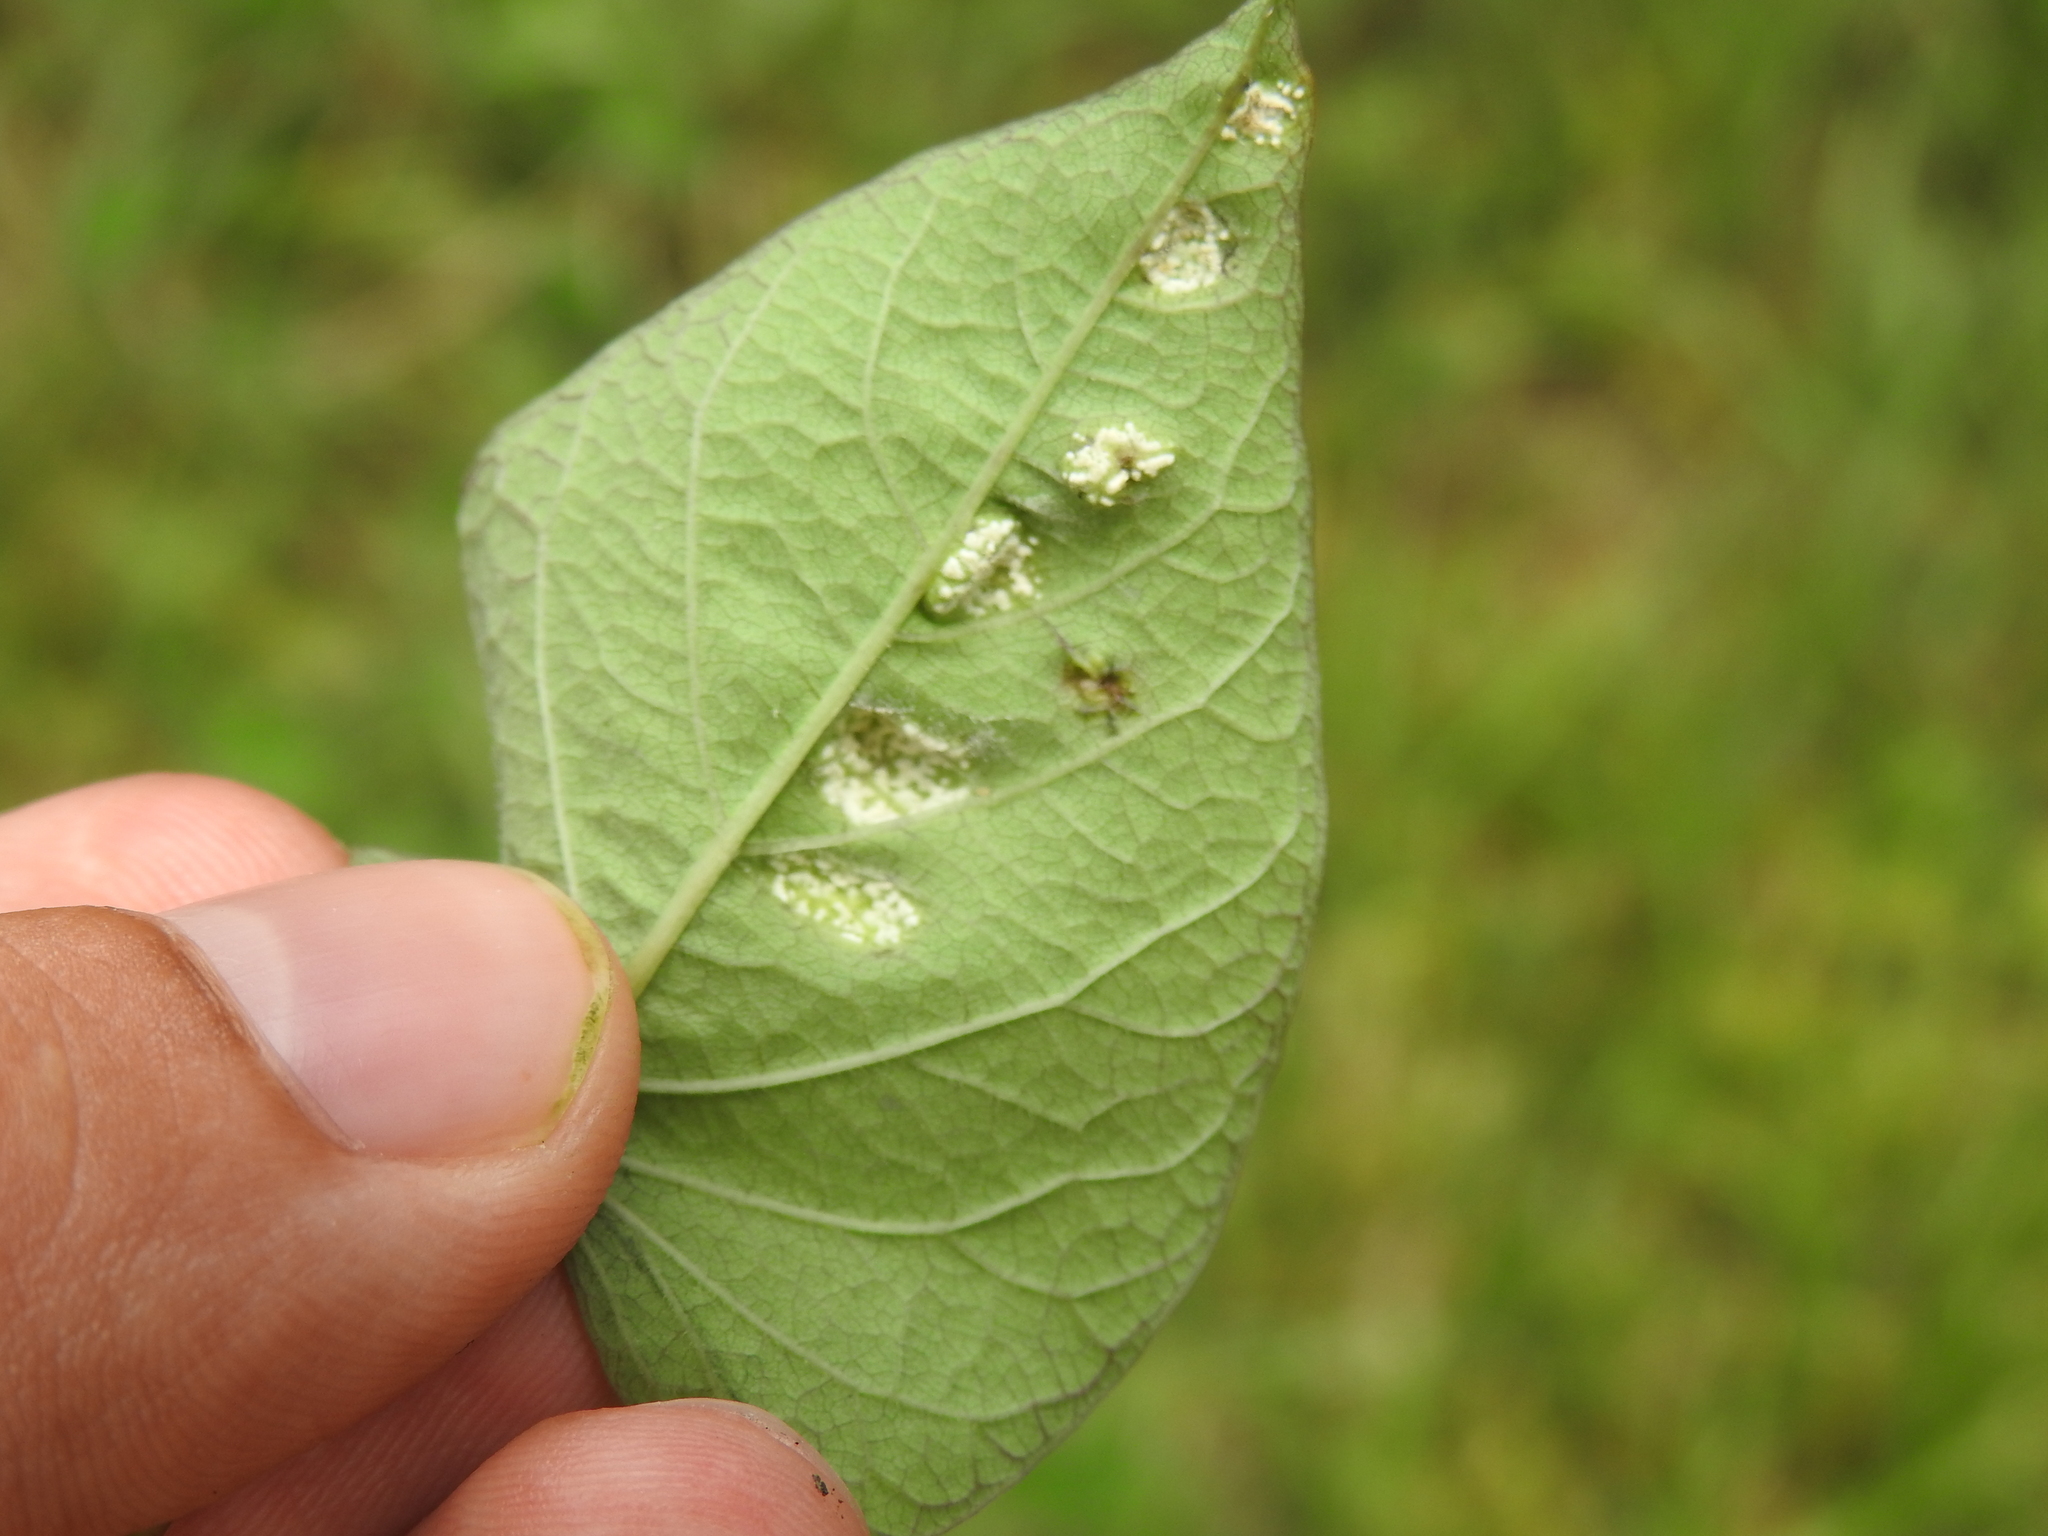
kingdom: Chromista
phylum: Oomycota
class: Peronosporea
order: Albuginales
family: Albuginaceae
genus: Albugo
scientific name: Albugo ipomoeae-panduratae
